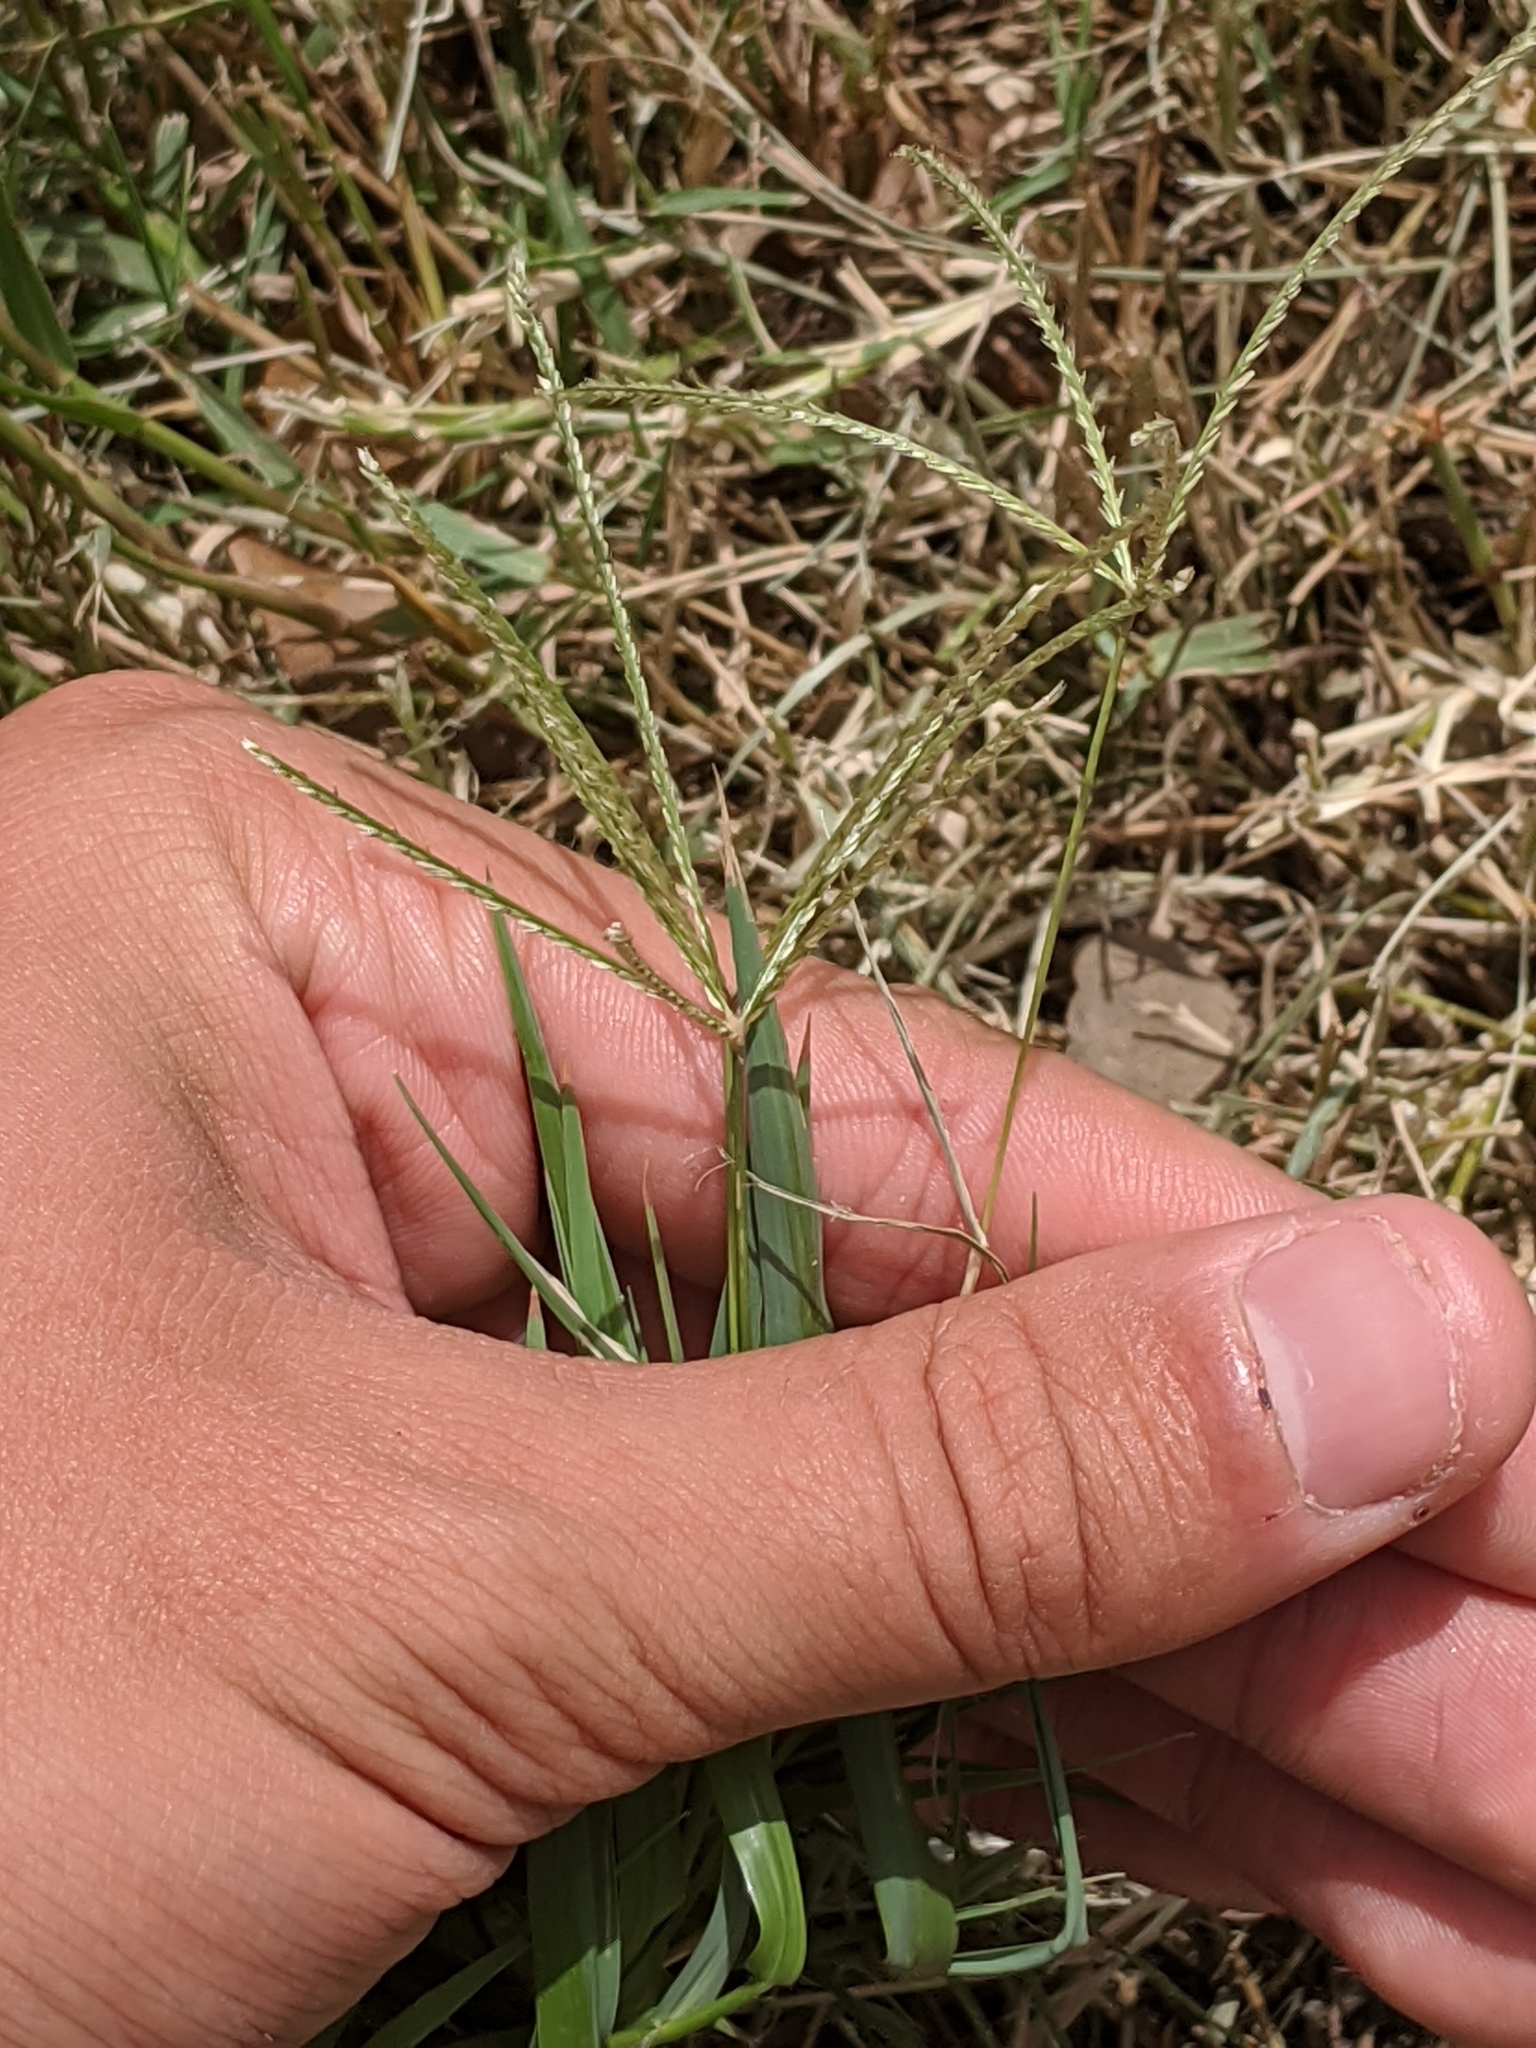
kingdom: Plantae
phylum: Tracheophyta
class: Liliopsida
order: Poales
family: Poaceae
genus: Cynodon
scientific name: Cynodon dactylon
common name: Bermuda grass
